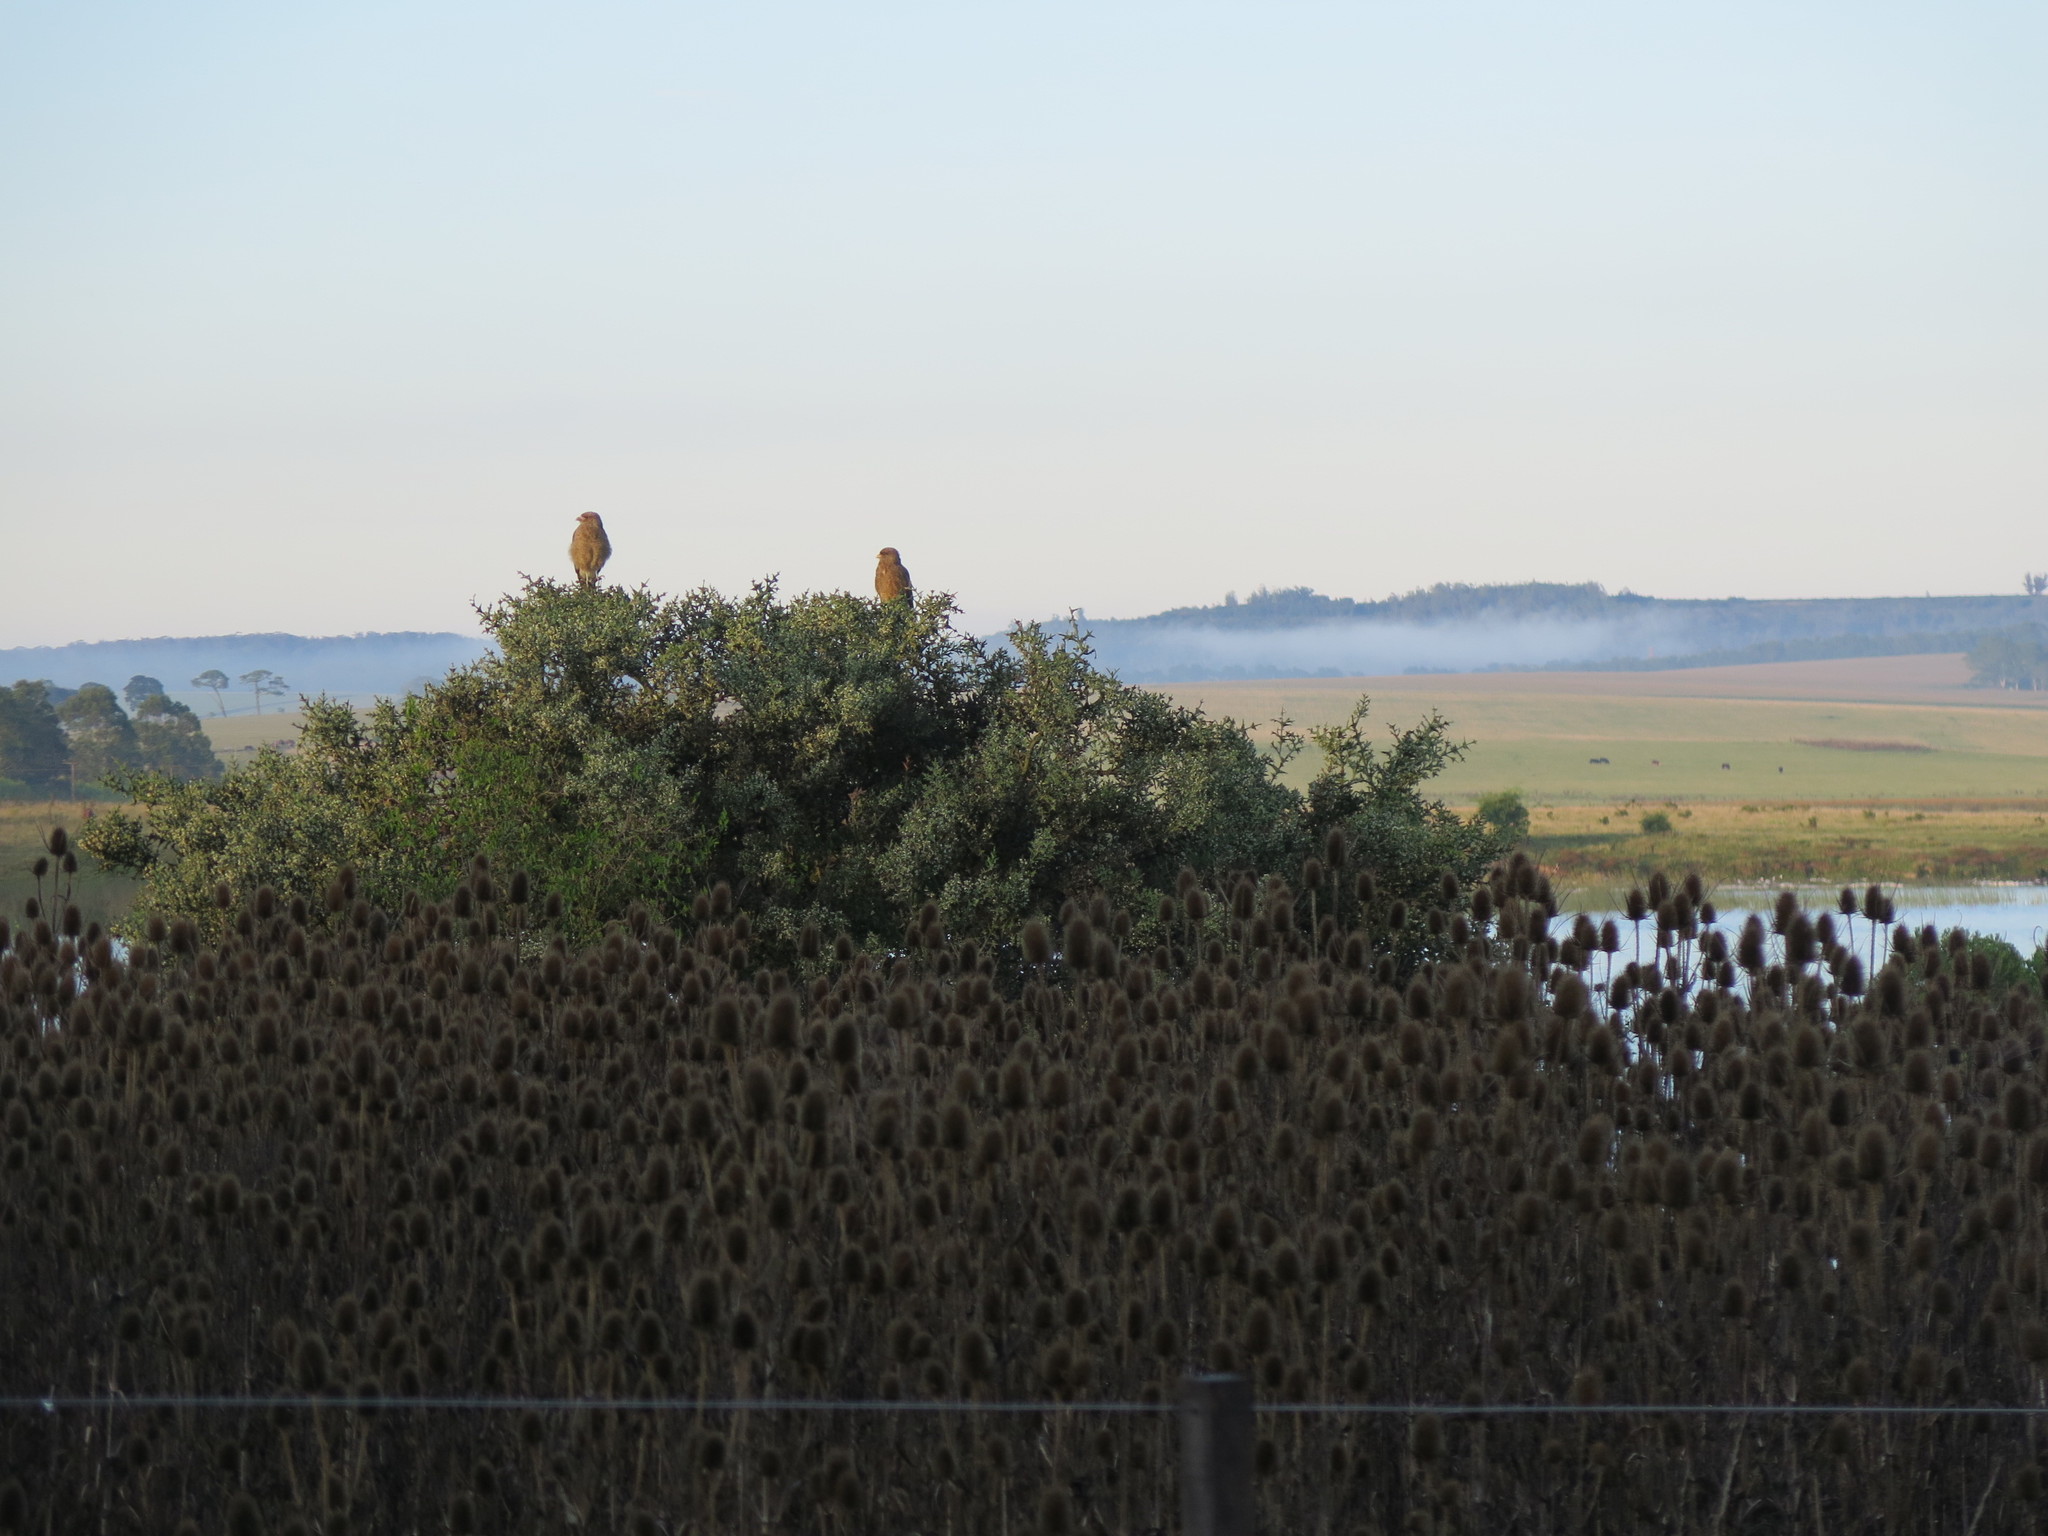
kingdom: Animalia
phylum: Chordata
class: Aves
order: Falconiformes
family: Falconidae
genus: Daptrius
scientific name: Daptrius
